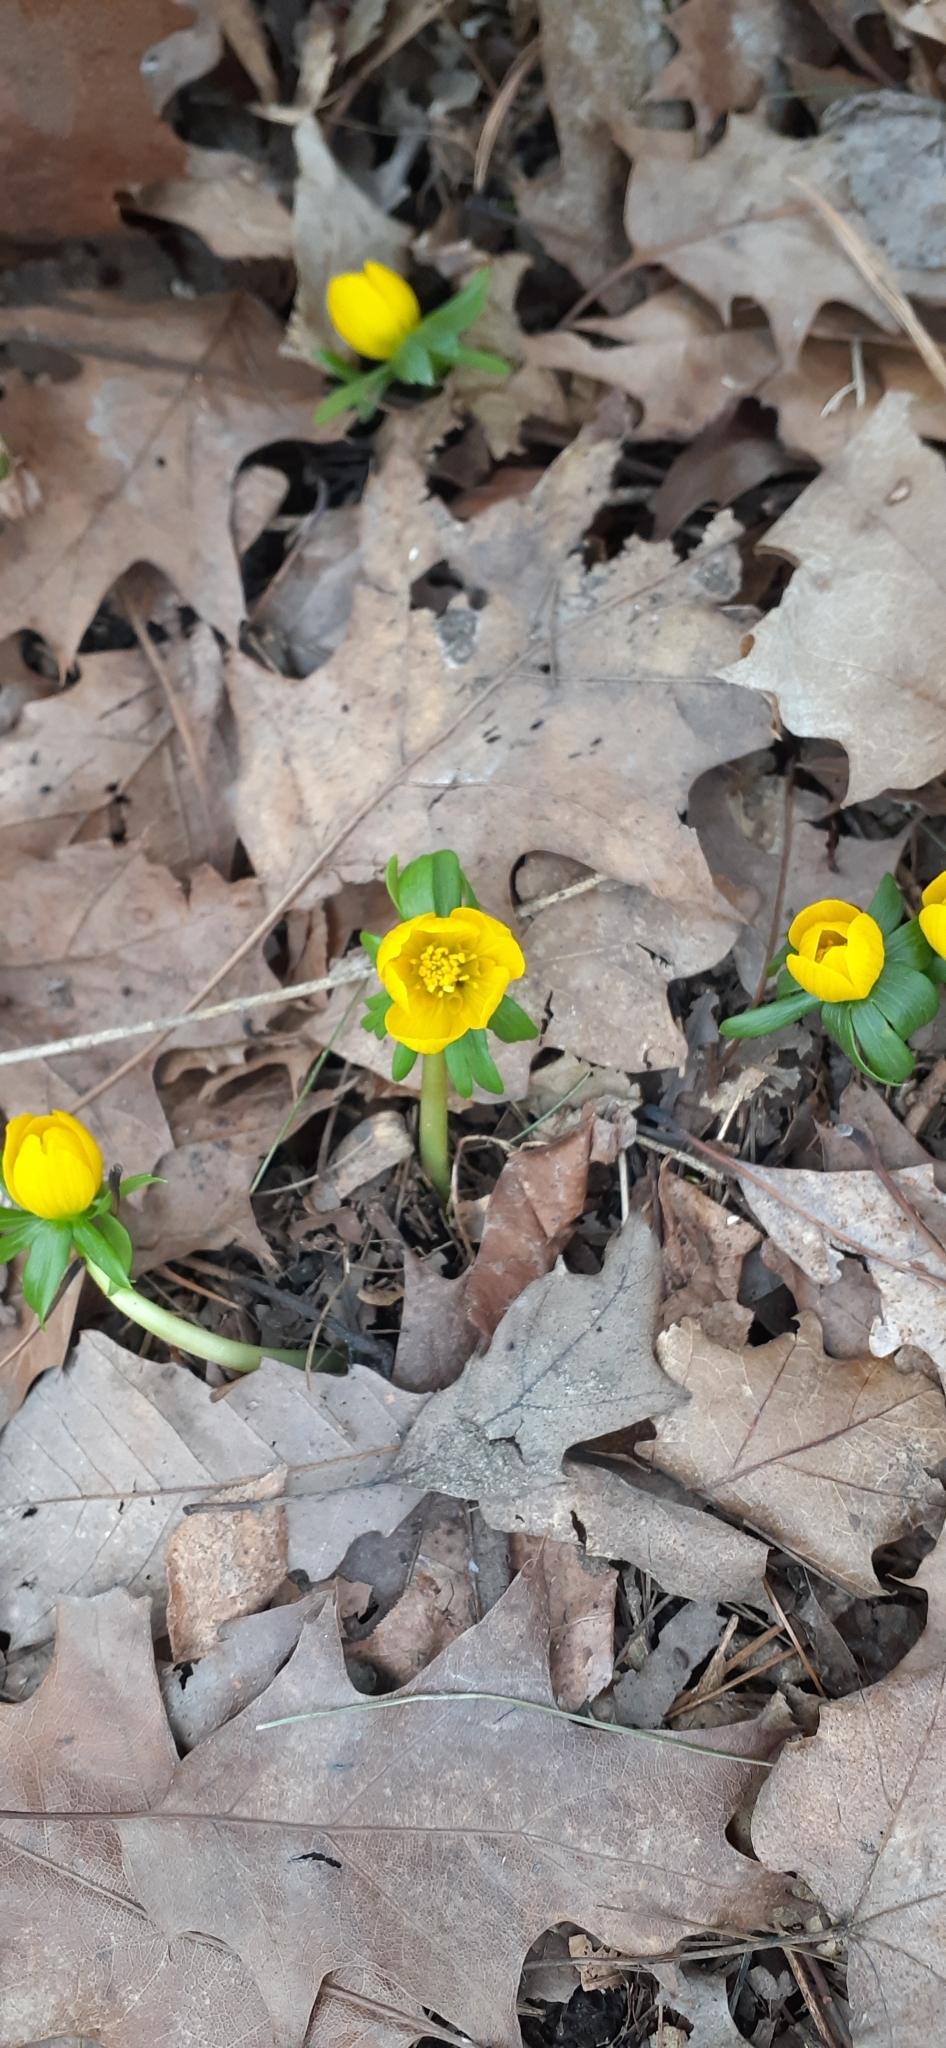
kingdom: Plantae
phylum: Tracheophyta
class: Magnoliopsida
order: Ranunculales
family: Ranunculaceae
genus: Eranthis
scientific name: Eranthis hyemalis
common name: Winter aconite
